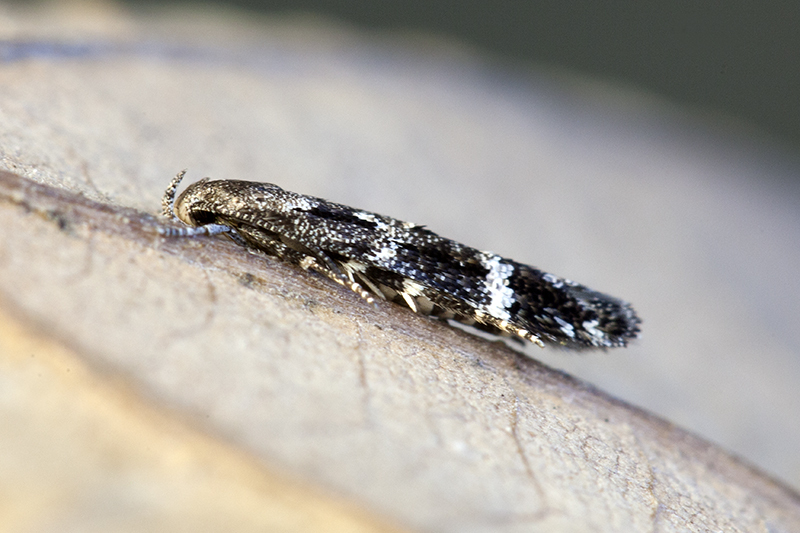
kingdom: Animalia
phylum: Arthropoda
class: Insecta
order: Lepidoptera
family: Momphidae
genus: Mompha
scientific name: Mompha subbistrigella
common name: Garden cosmet
